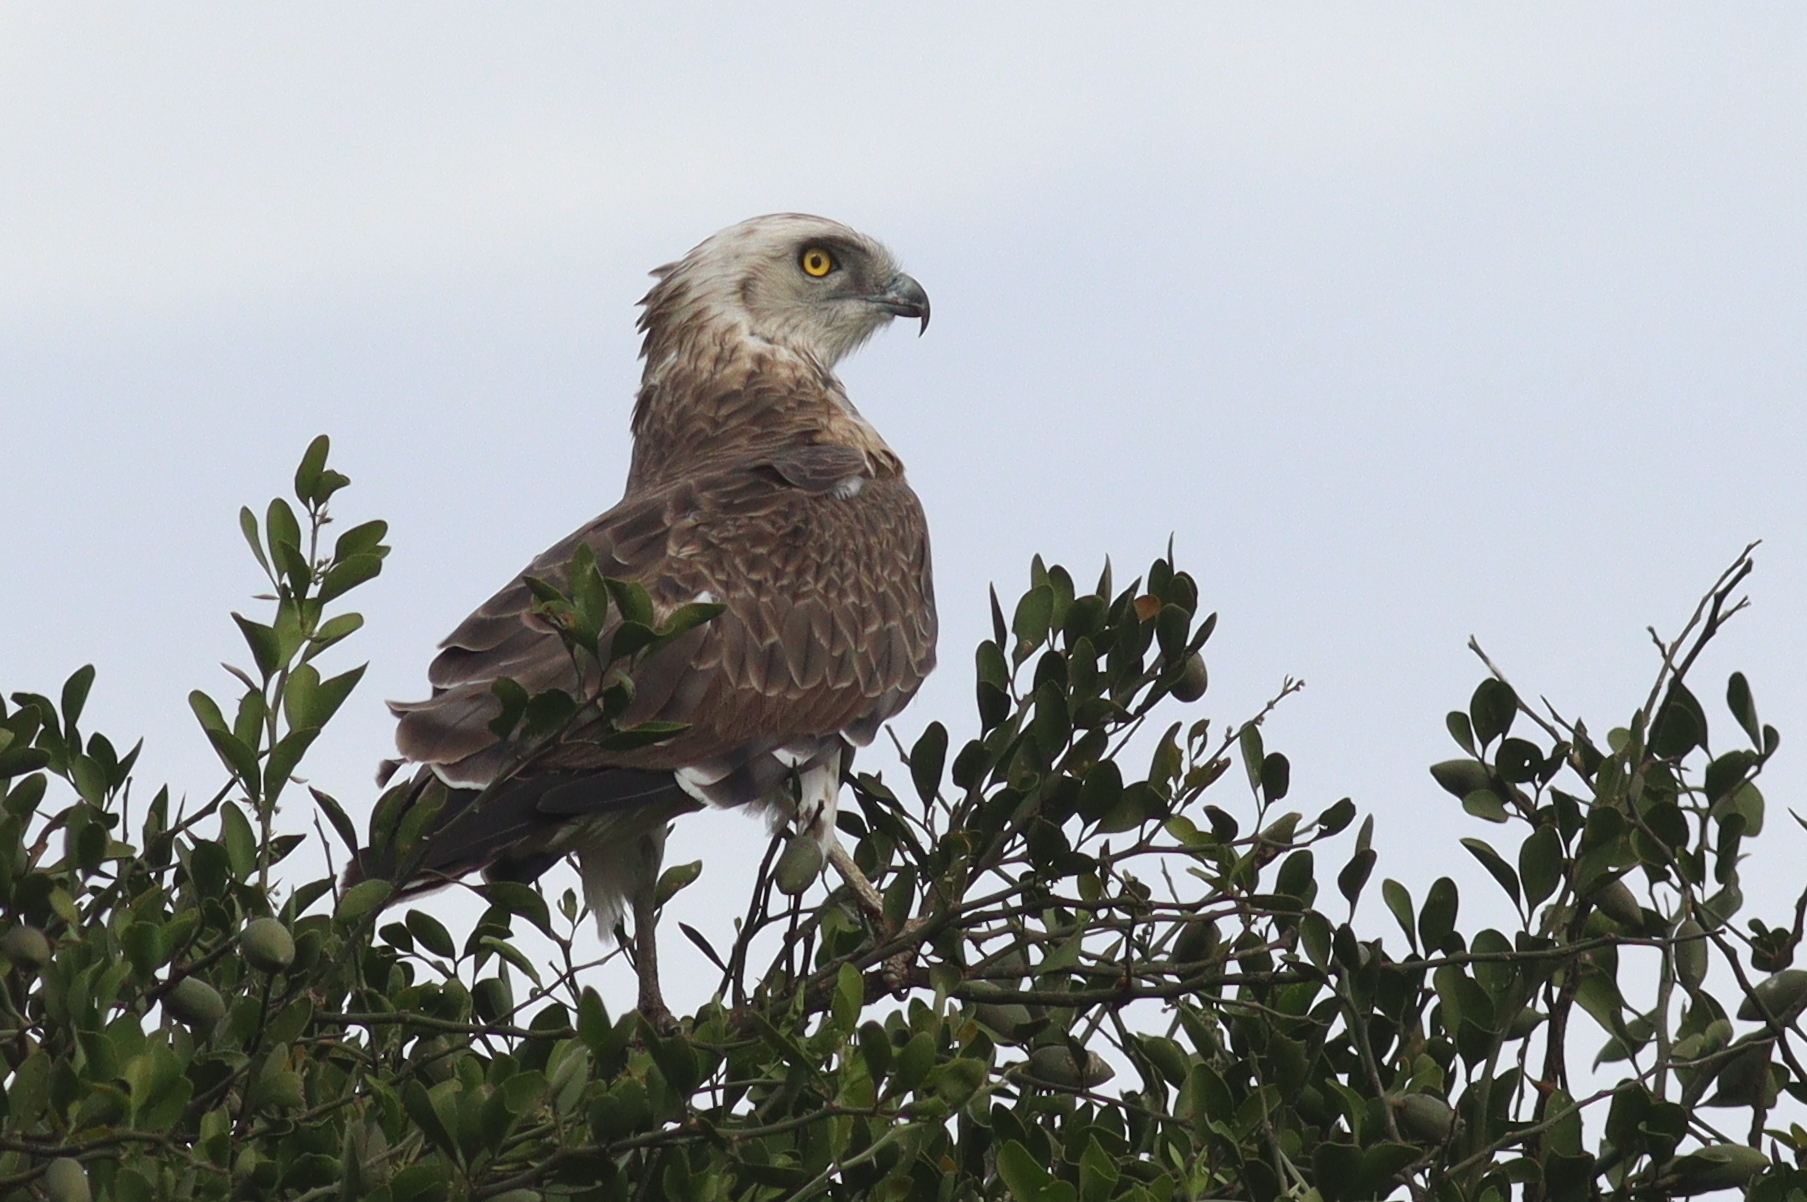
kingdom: Animalia
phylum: Chordata
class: Aves
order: Accipitriformes
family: Accipitridae
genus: Circaetus
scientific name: Circaetus pectoralis
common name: Black-chested snake eagle
